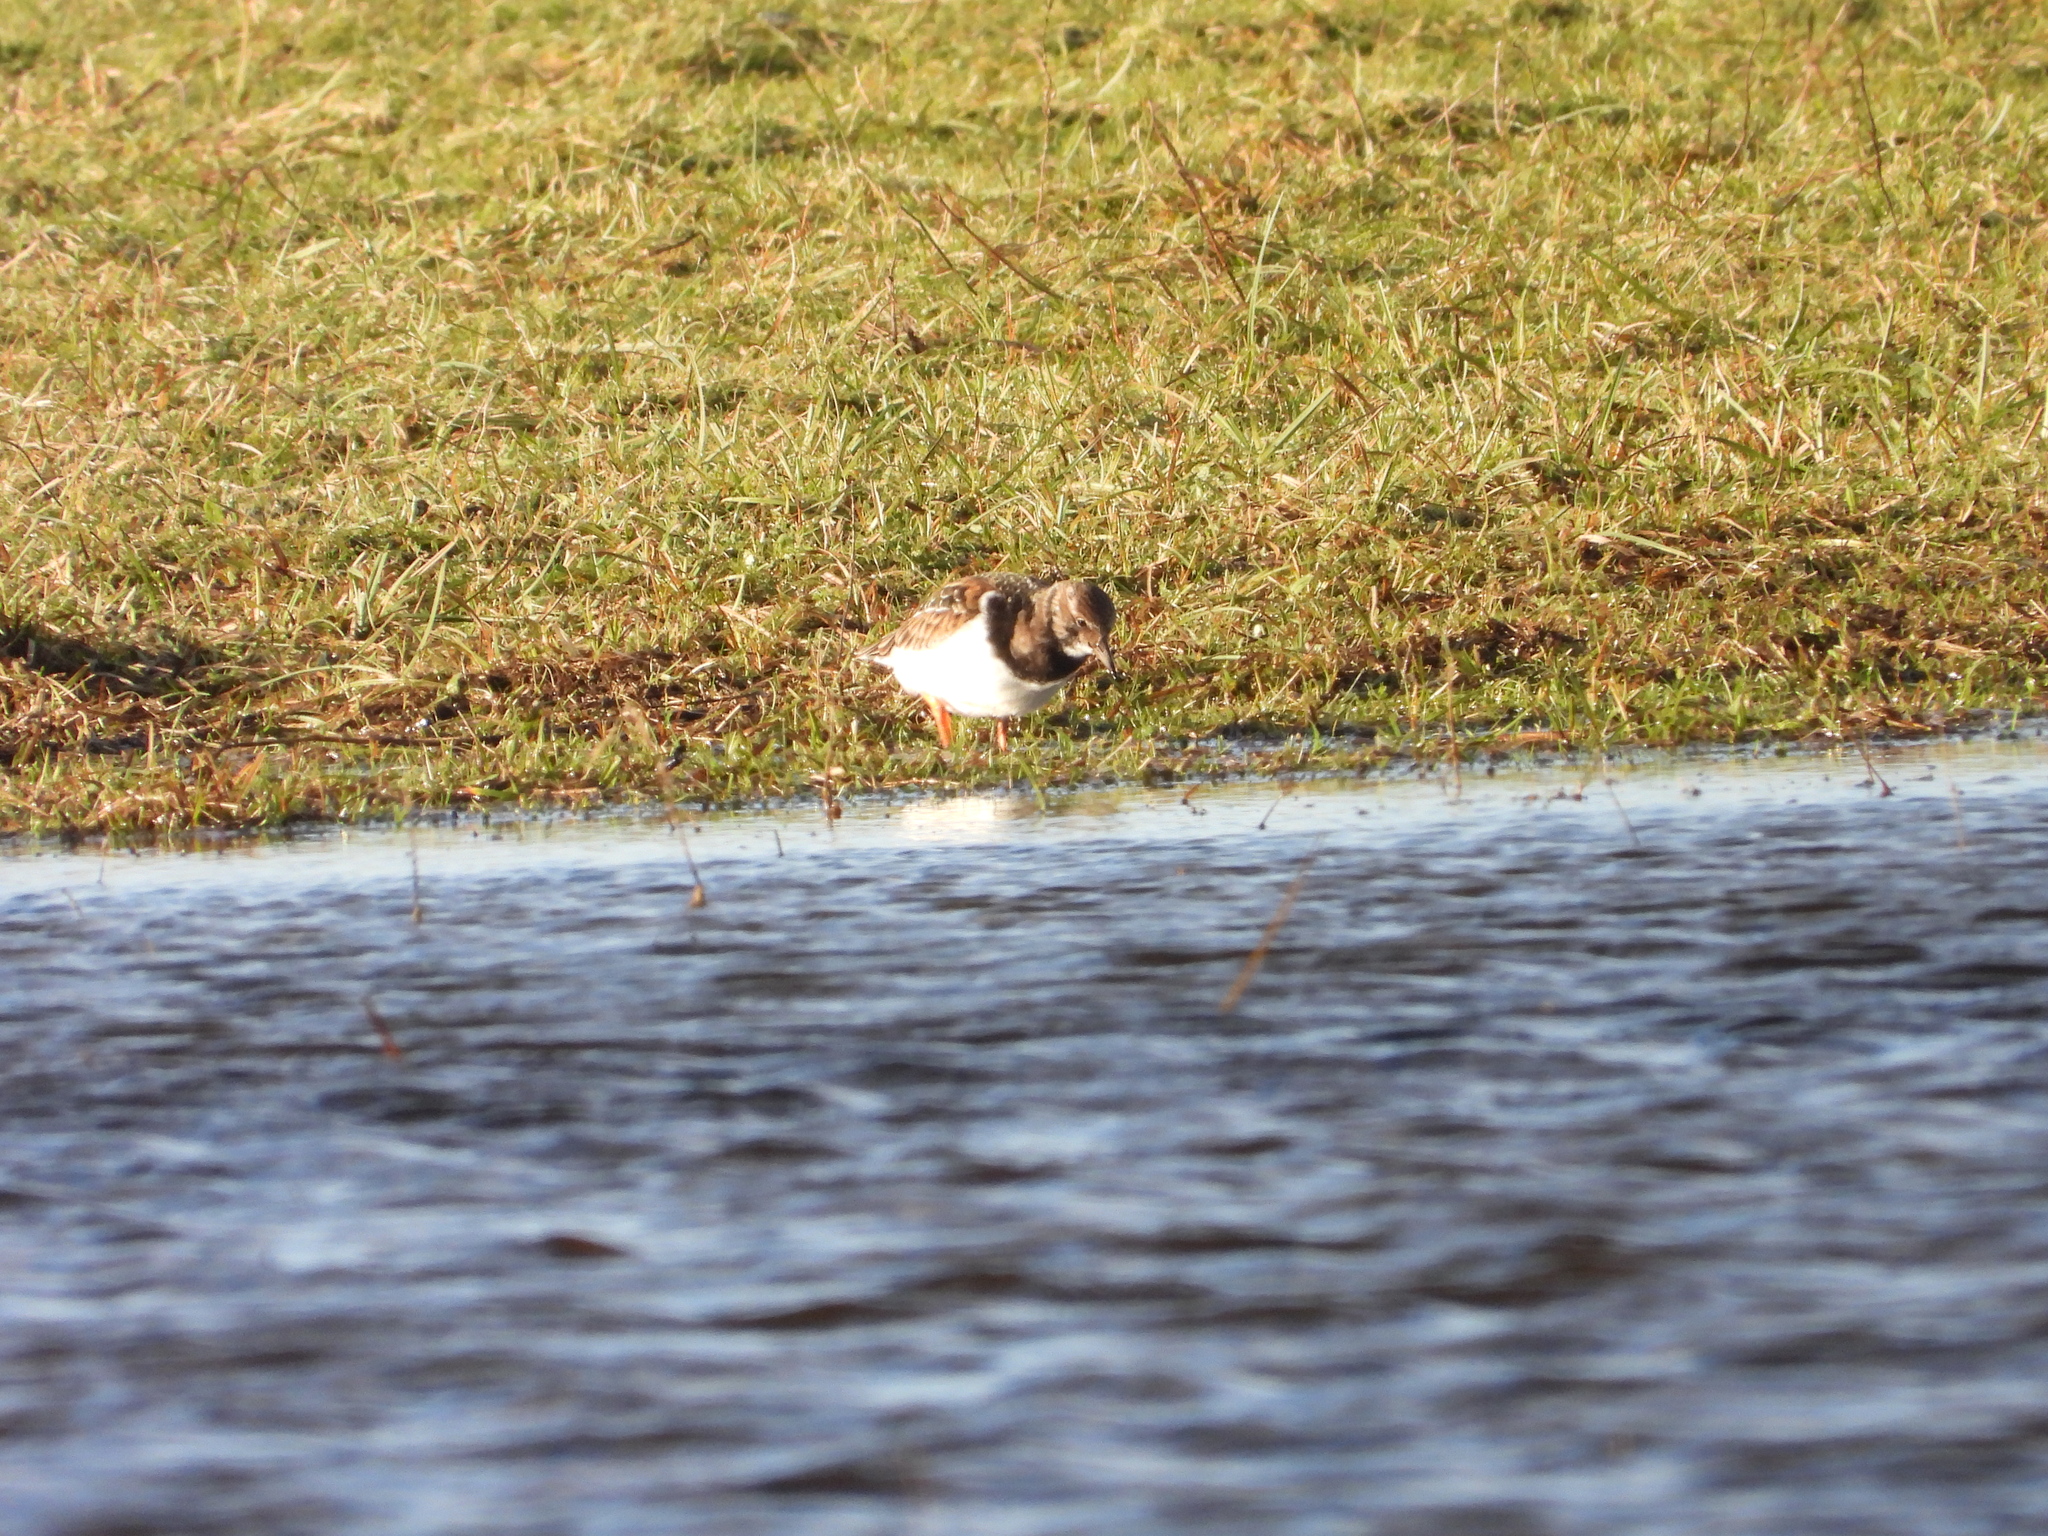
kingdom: Animalia
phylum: Chordata
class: Aves
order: Charadriiformes
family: Scolopacidae
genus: Arenaria
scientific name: Arenaria interpres
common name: Ruddy turnstone
